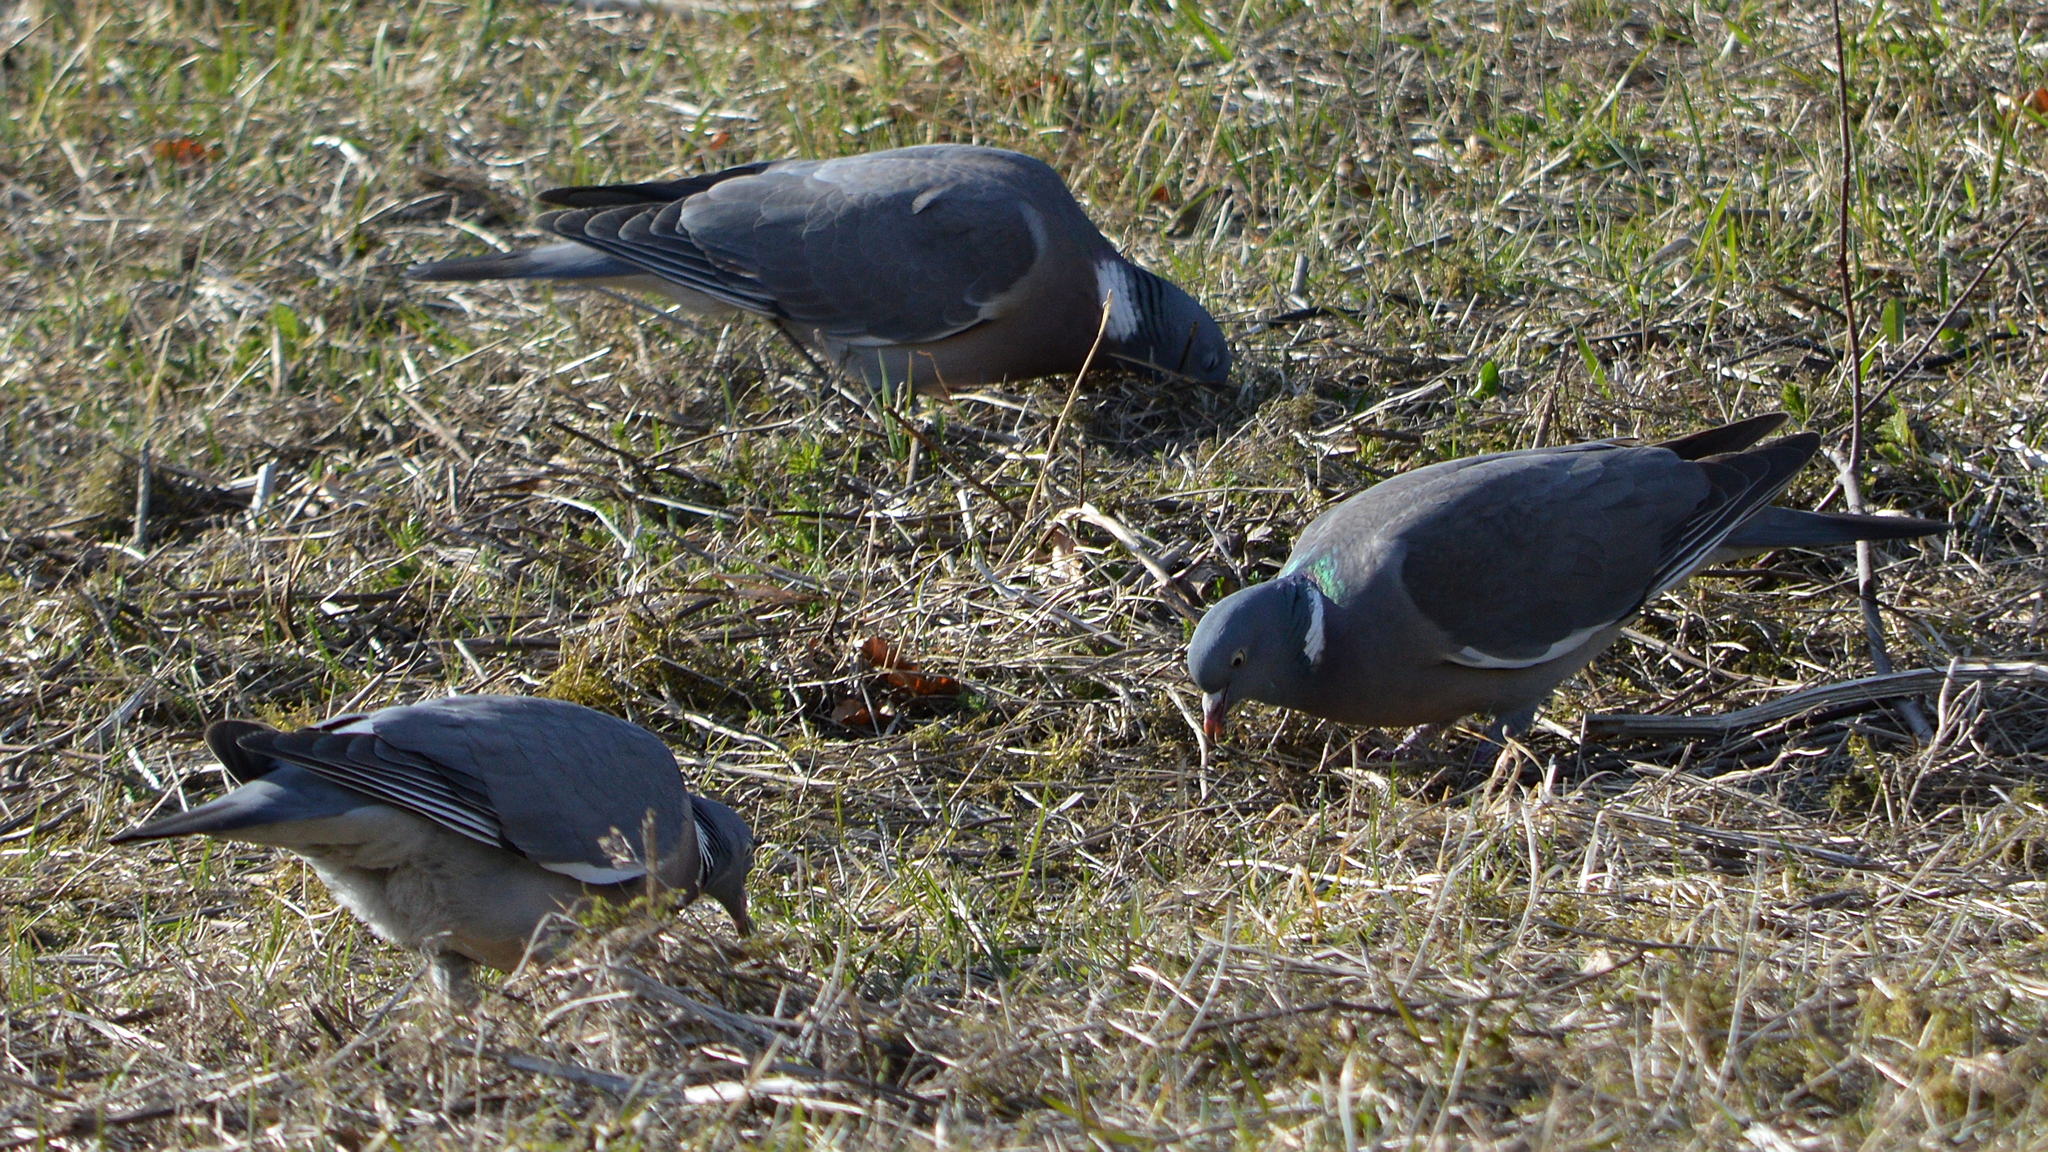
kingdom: Animalia
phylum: Chordata
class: Aves
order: Columbiformes
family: Columbidae
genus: Columba
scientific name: Columba palumbus
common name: Common wood pigeon
